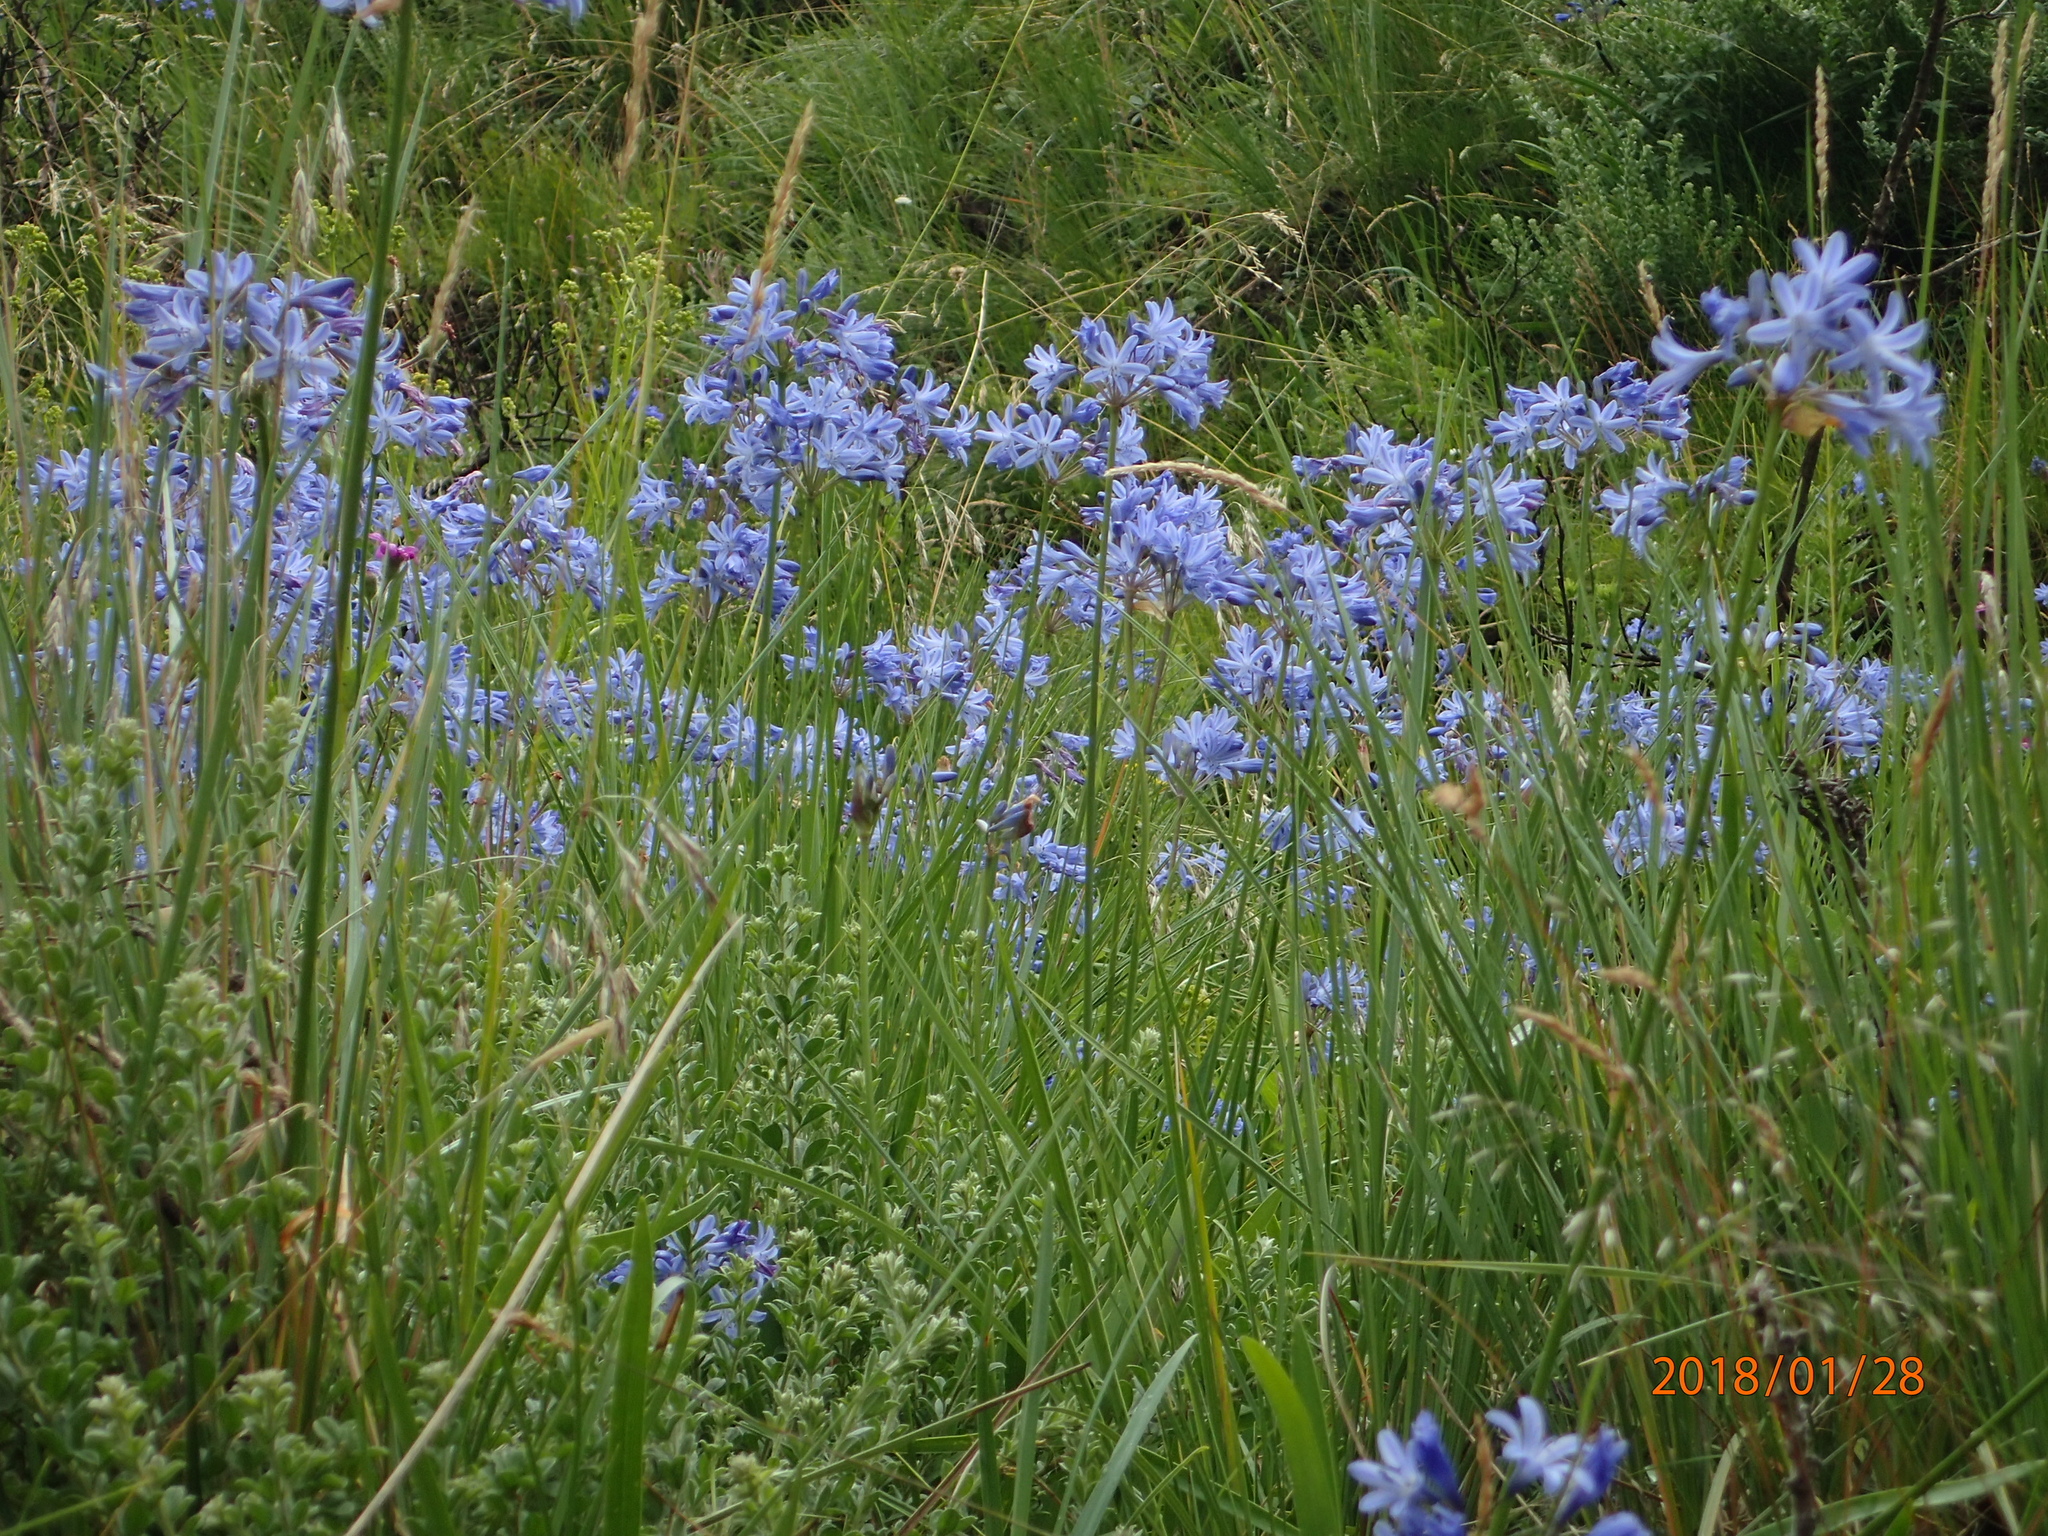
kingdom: Plantae
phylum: Tracheophyta
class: Liliopsida
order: Asparagales
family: Amaryllidaceae
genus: Agapanthus
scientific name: Agapanthus campanulatus
